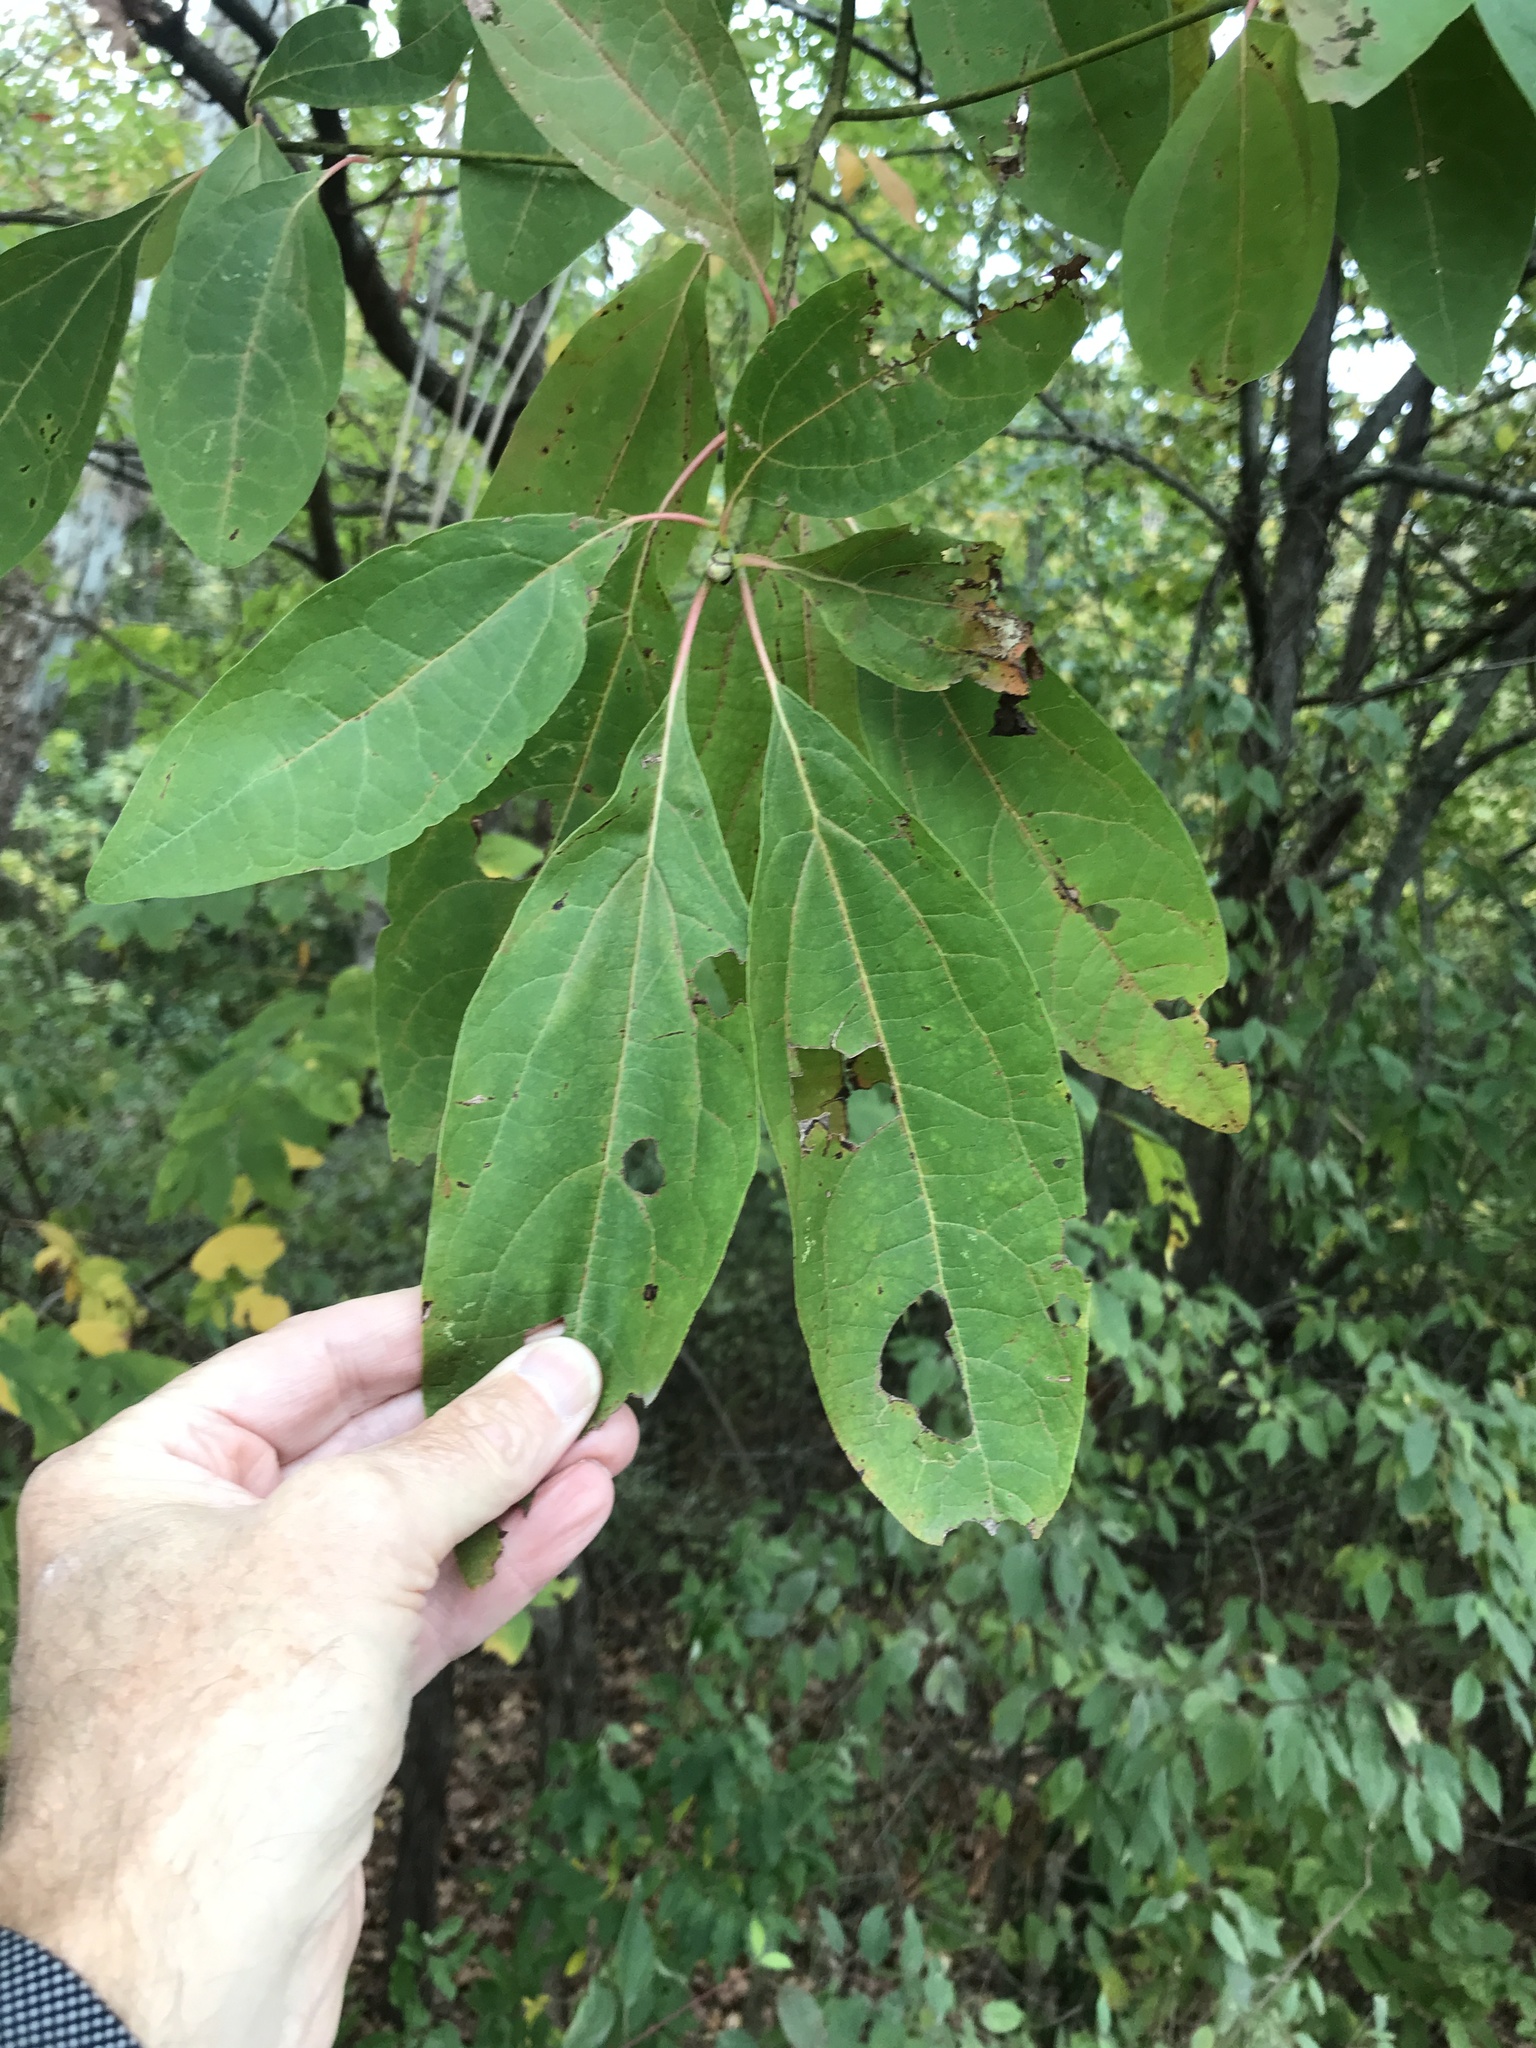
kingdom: Plantae
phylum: Tracheophyta
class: Magnoliopsida
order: Laurales
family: Lauraceae
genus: Sassafras
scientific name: Sassafras albidum
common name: Sassafras
